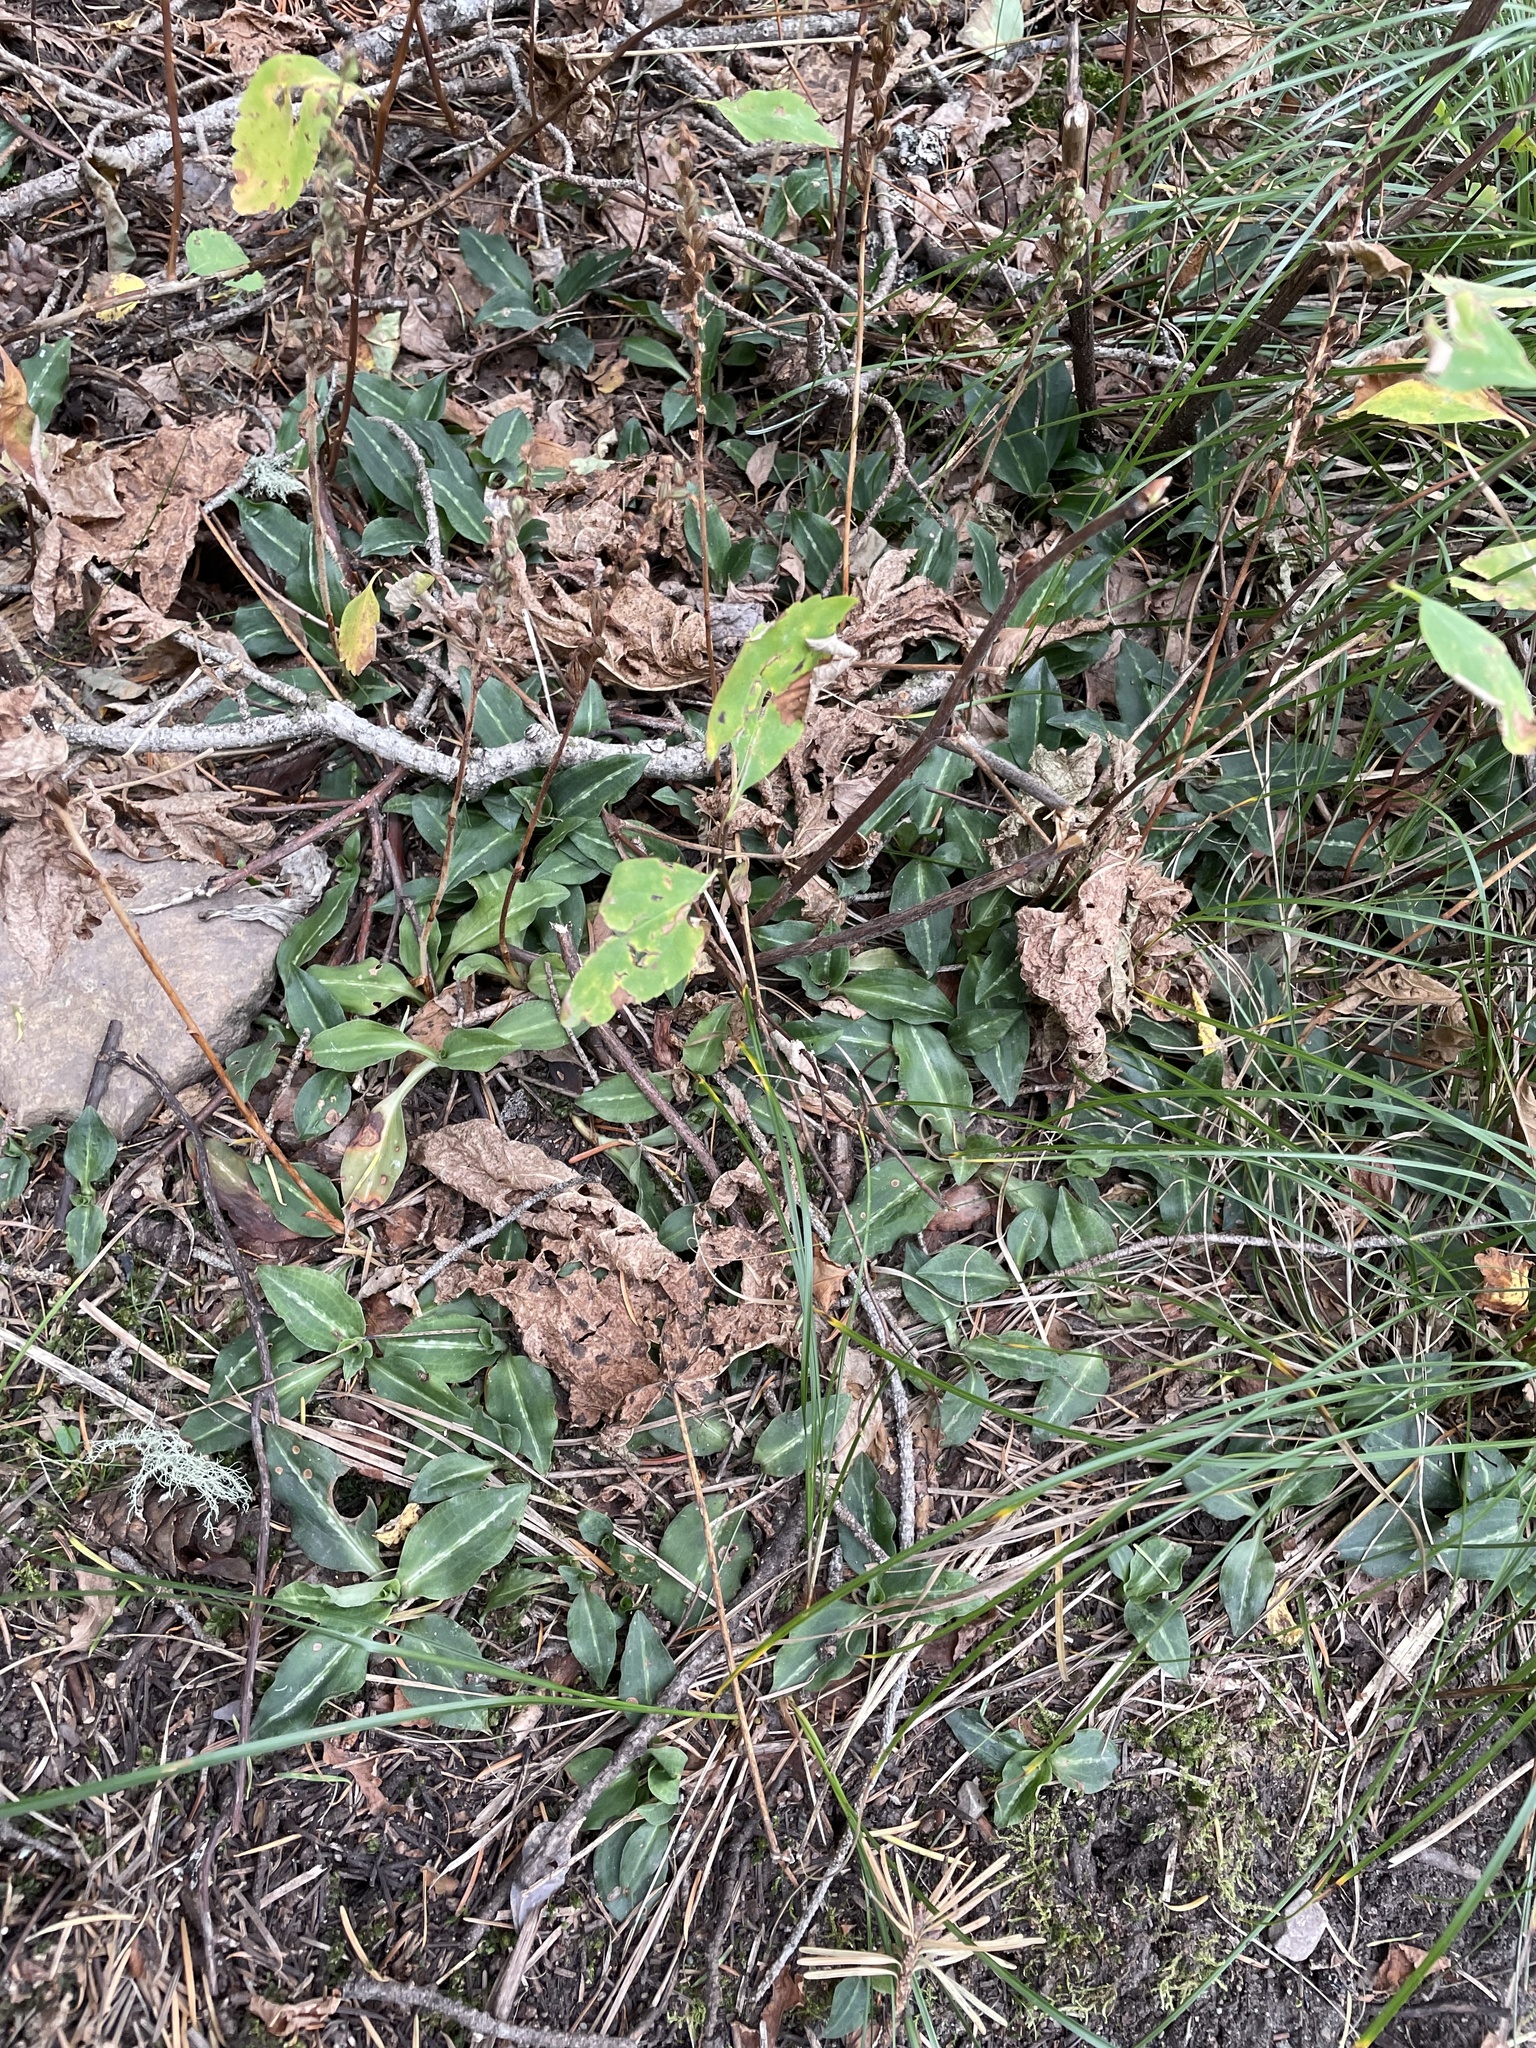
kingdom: Plantae
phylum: Tracheophyta
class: Liliopsida
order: Asparagales
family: Orchidaceae
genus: Goodyera
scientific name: Goodyera oblongifolia
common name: Giant rattlesnake-plantain
